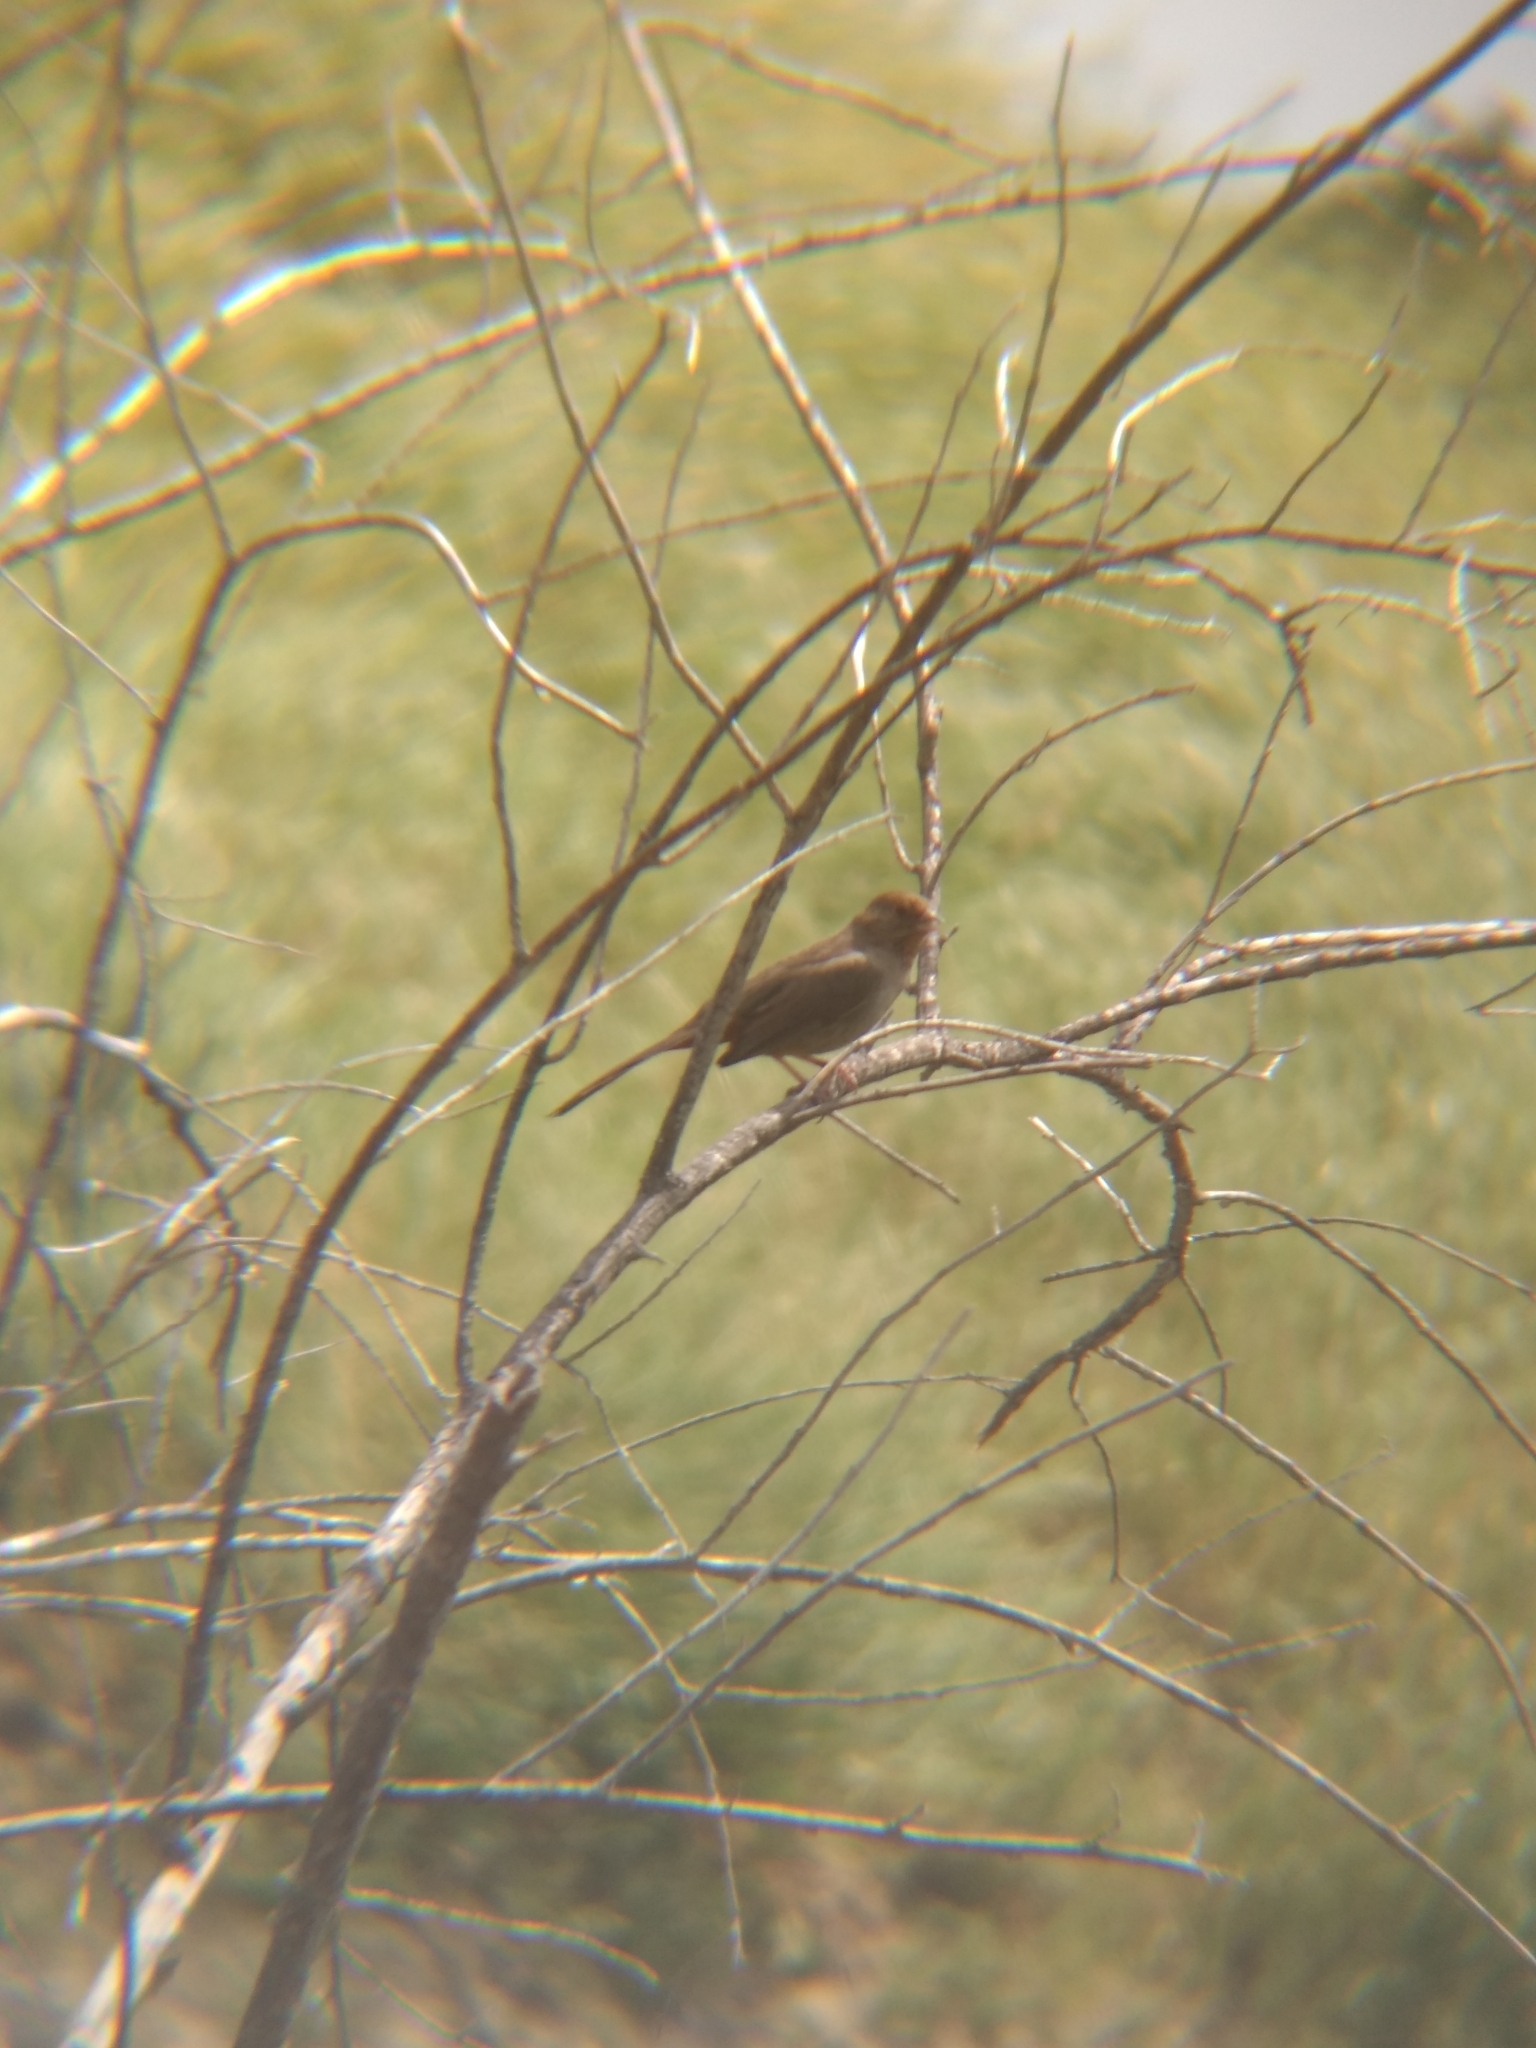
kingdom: Animalia
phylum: Chordata
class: Aves
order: Passeriformes
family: Passerellidae
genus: Melozone
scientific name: Melozone crissalis
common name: California towhee
